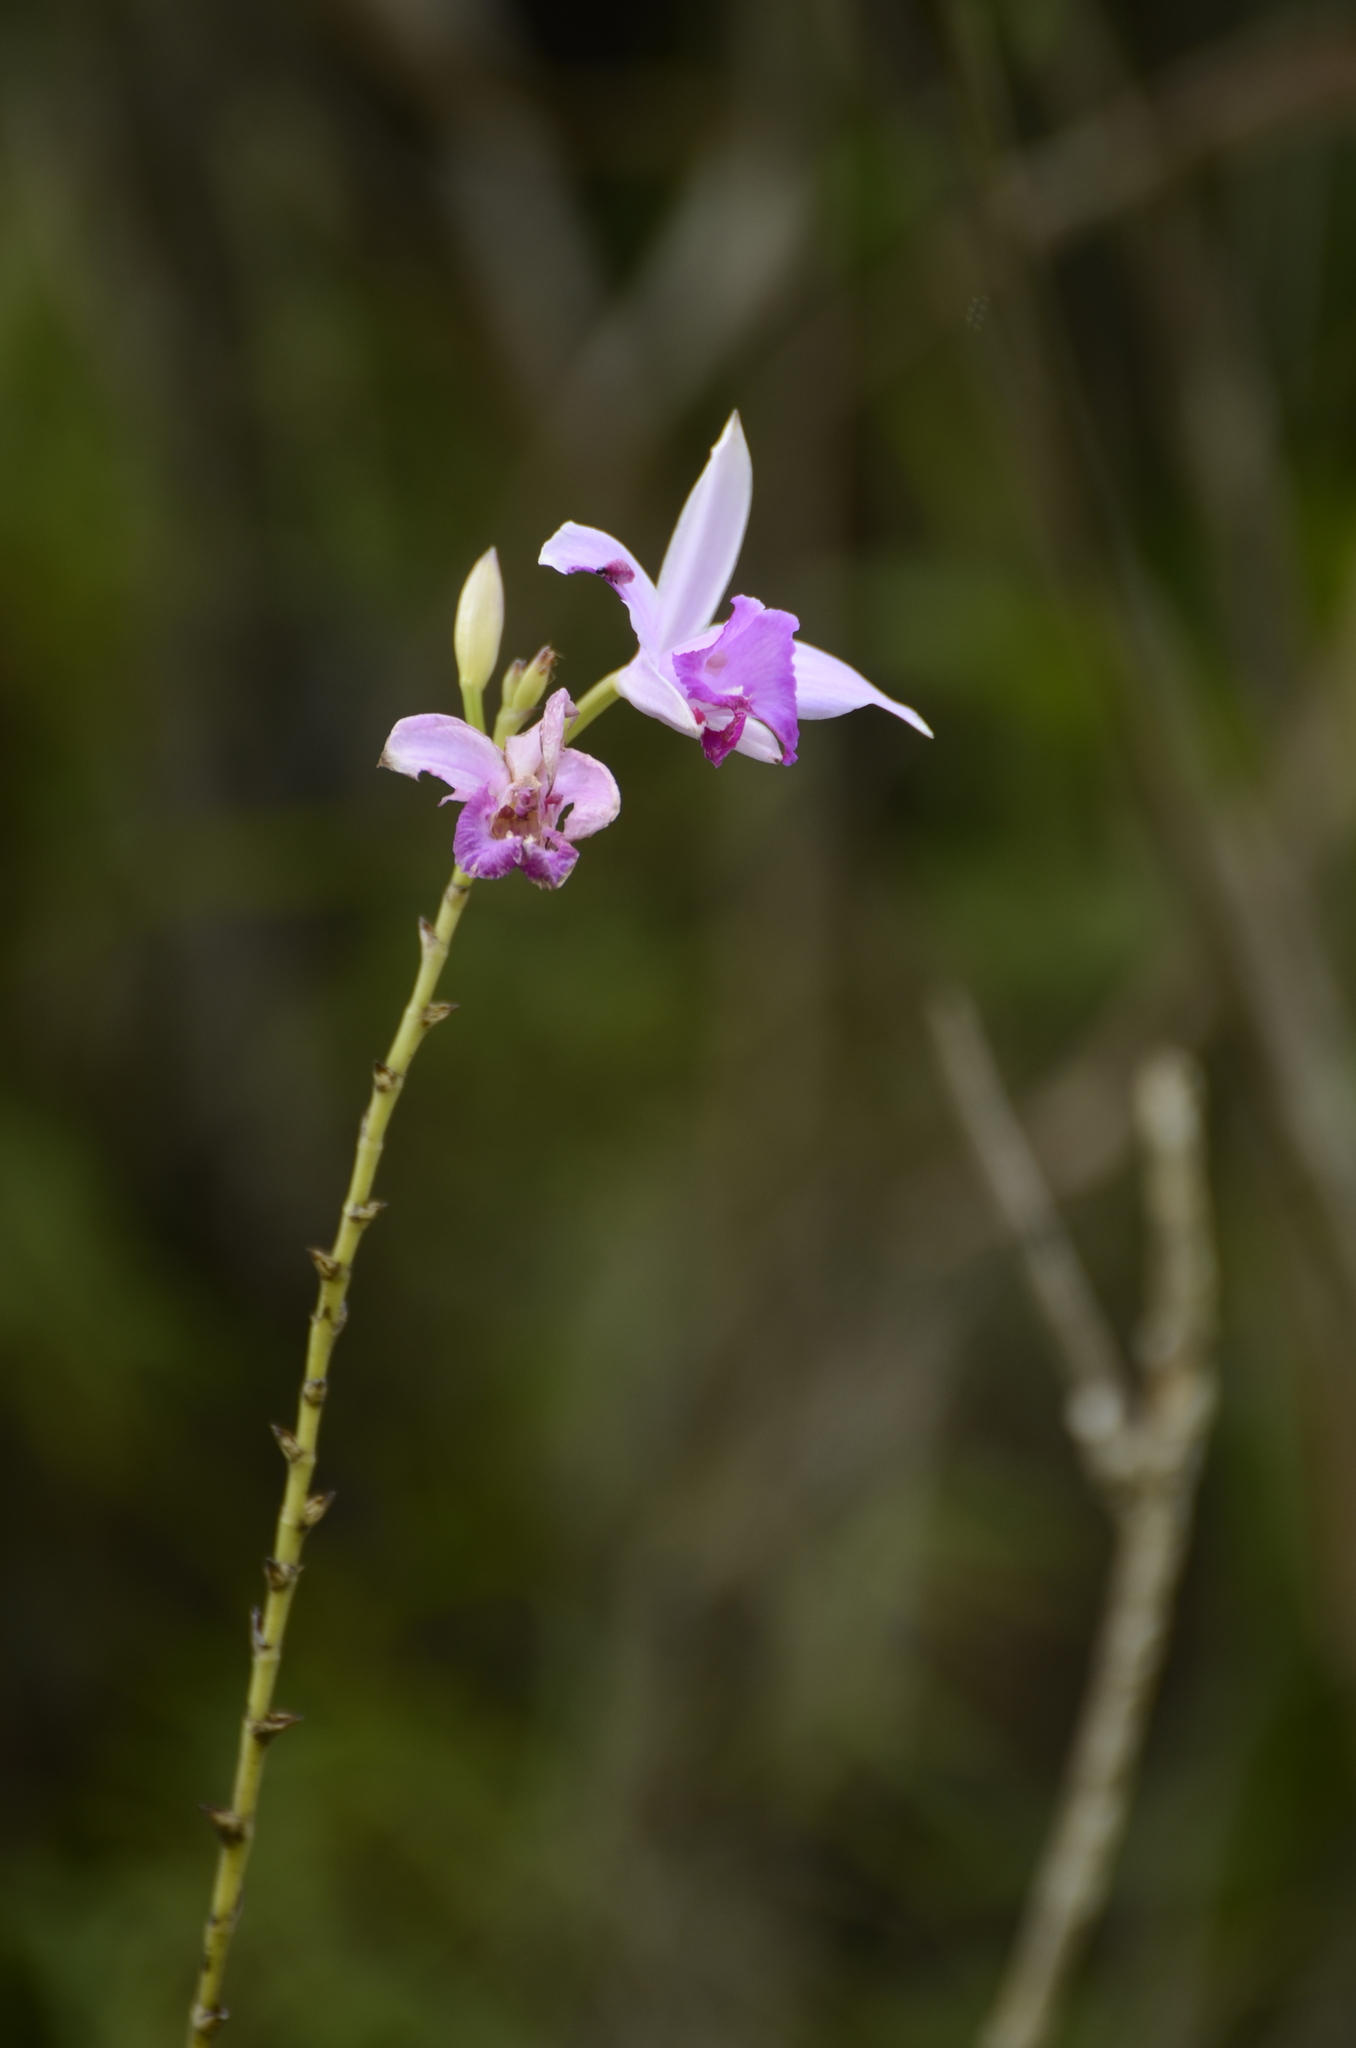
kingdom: Plantae
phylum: Tracheophyta
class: Liliopsida
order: Asparagales
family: Orchidaceae
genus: Arundina
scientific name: Arundina graminifolia
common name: Bamboo orchid
